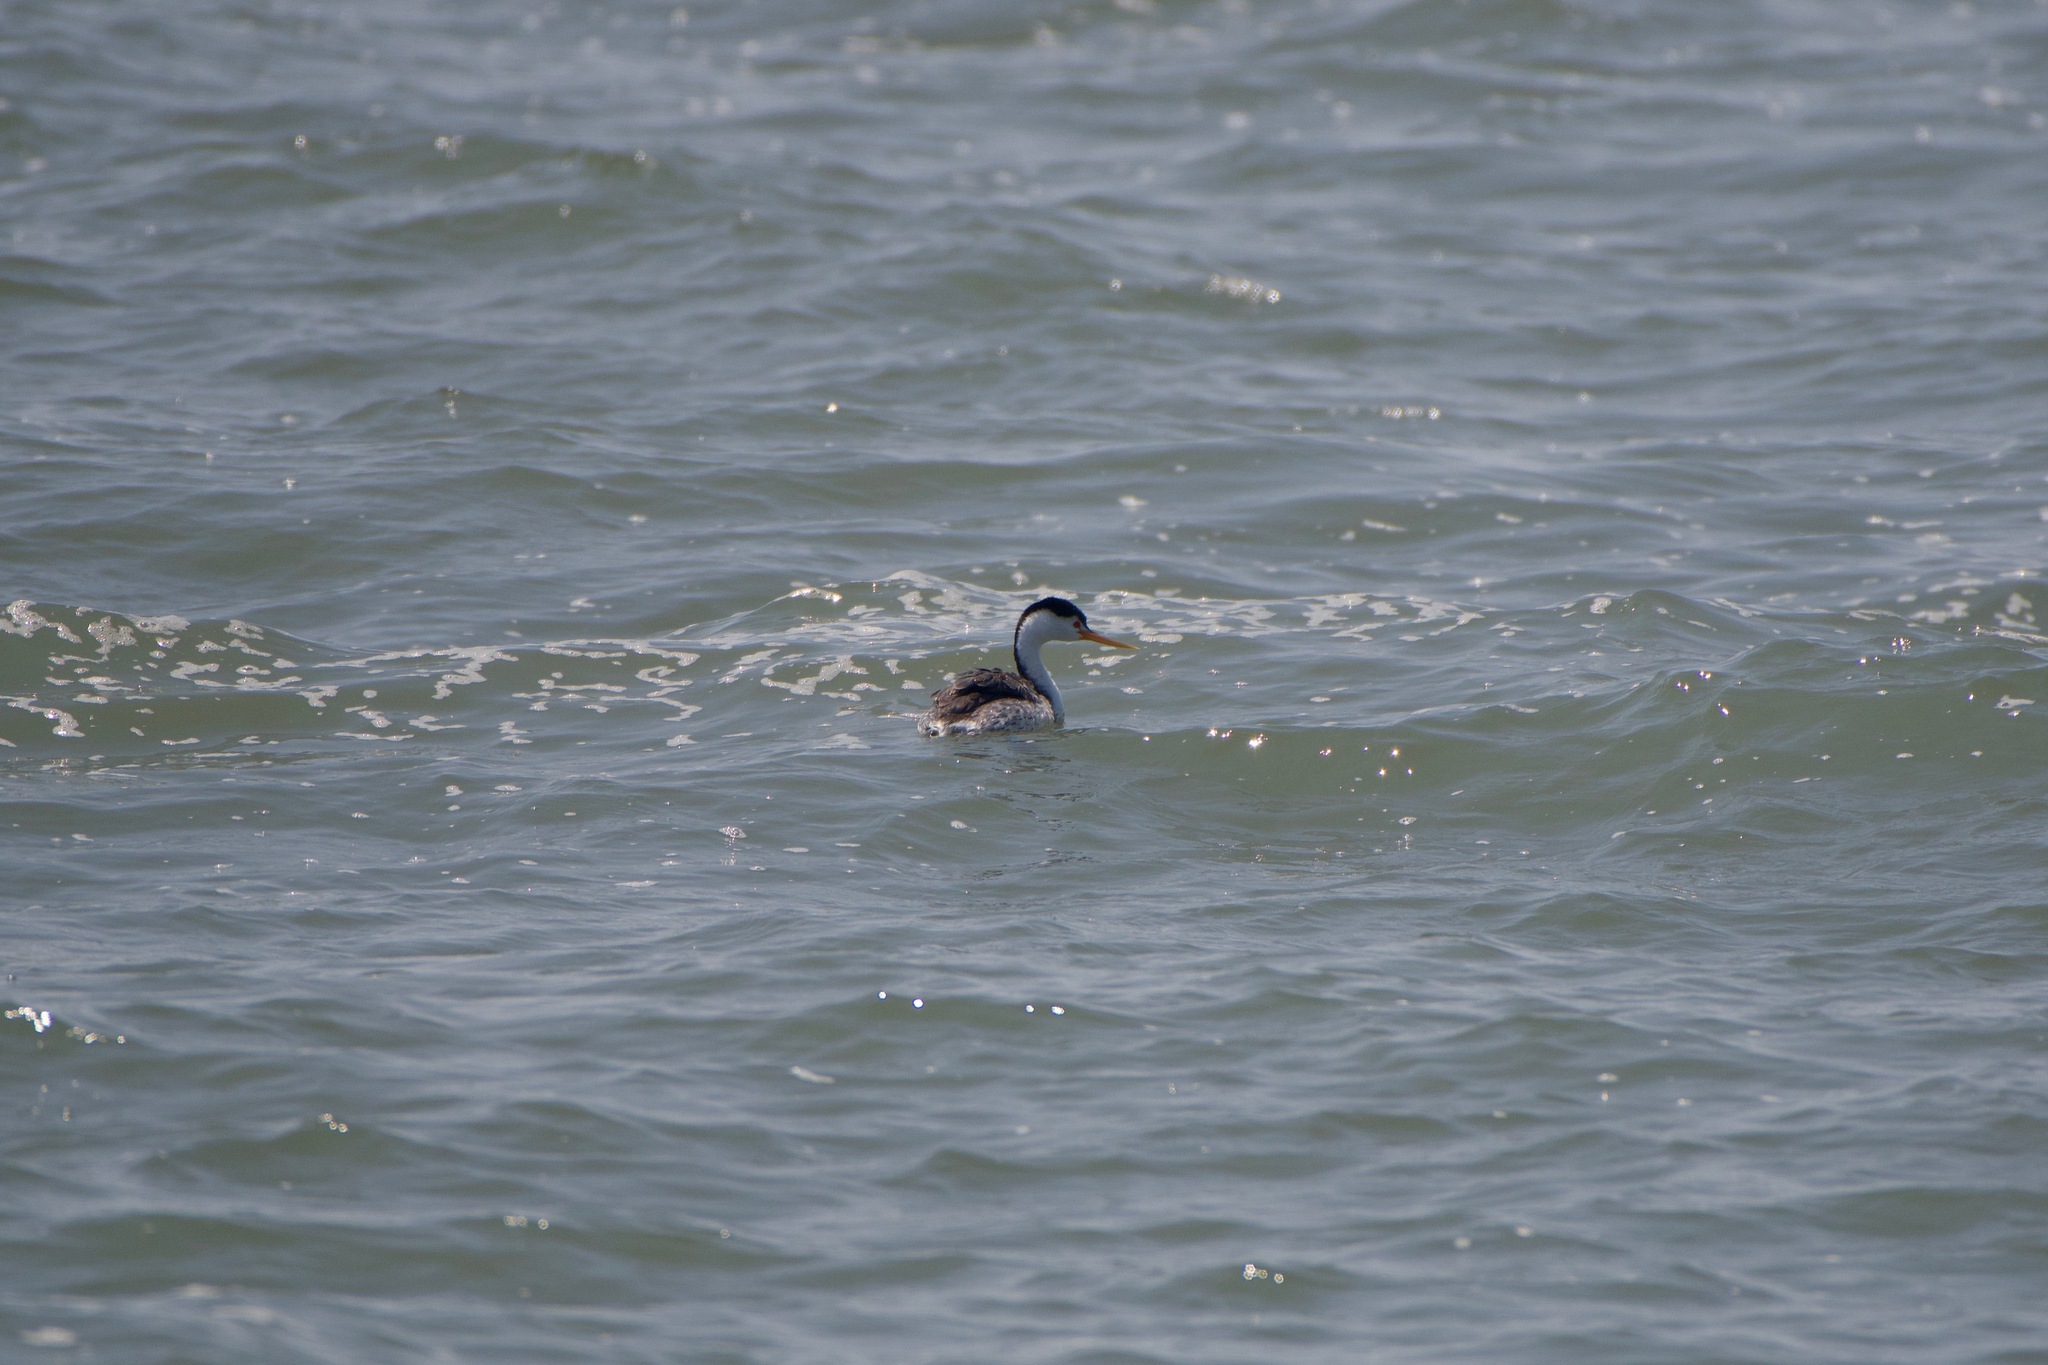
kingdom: Animalia
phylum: Chordata
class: Aves
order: Podicipediformes
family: Podicipedidae
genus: Aechmophorus
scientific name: Aechmophorus clarkii
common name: Clark's grebe
